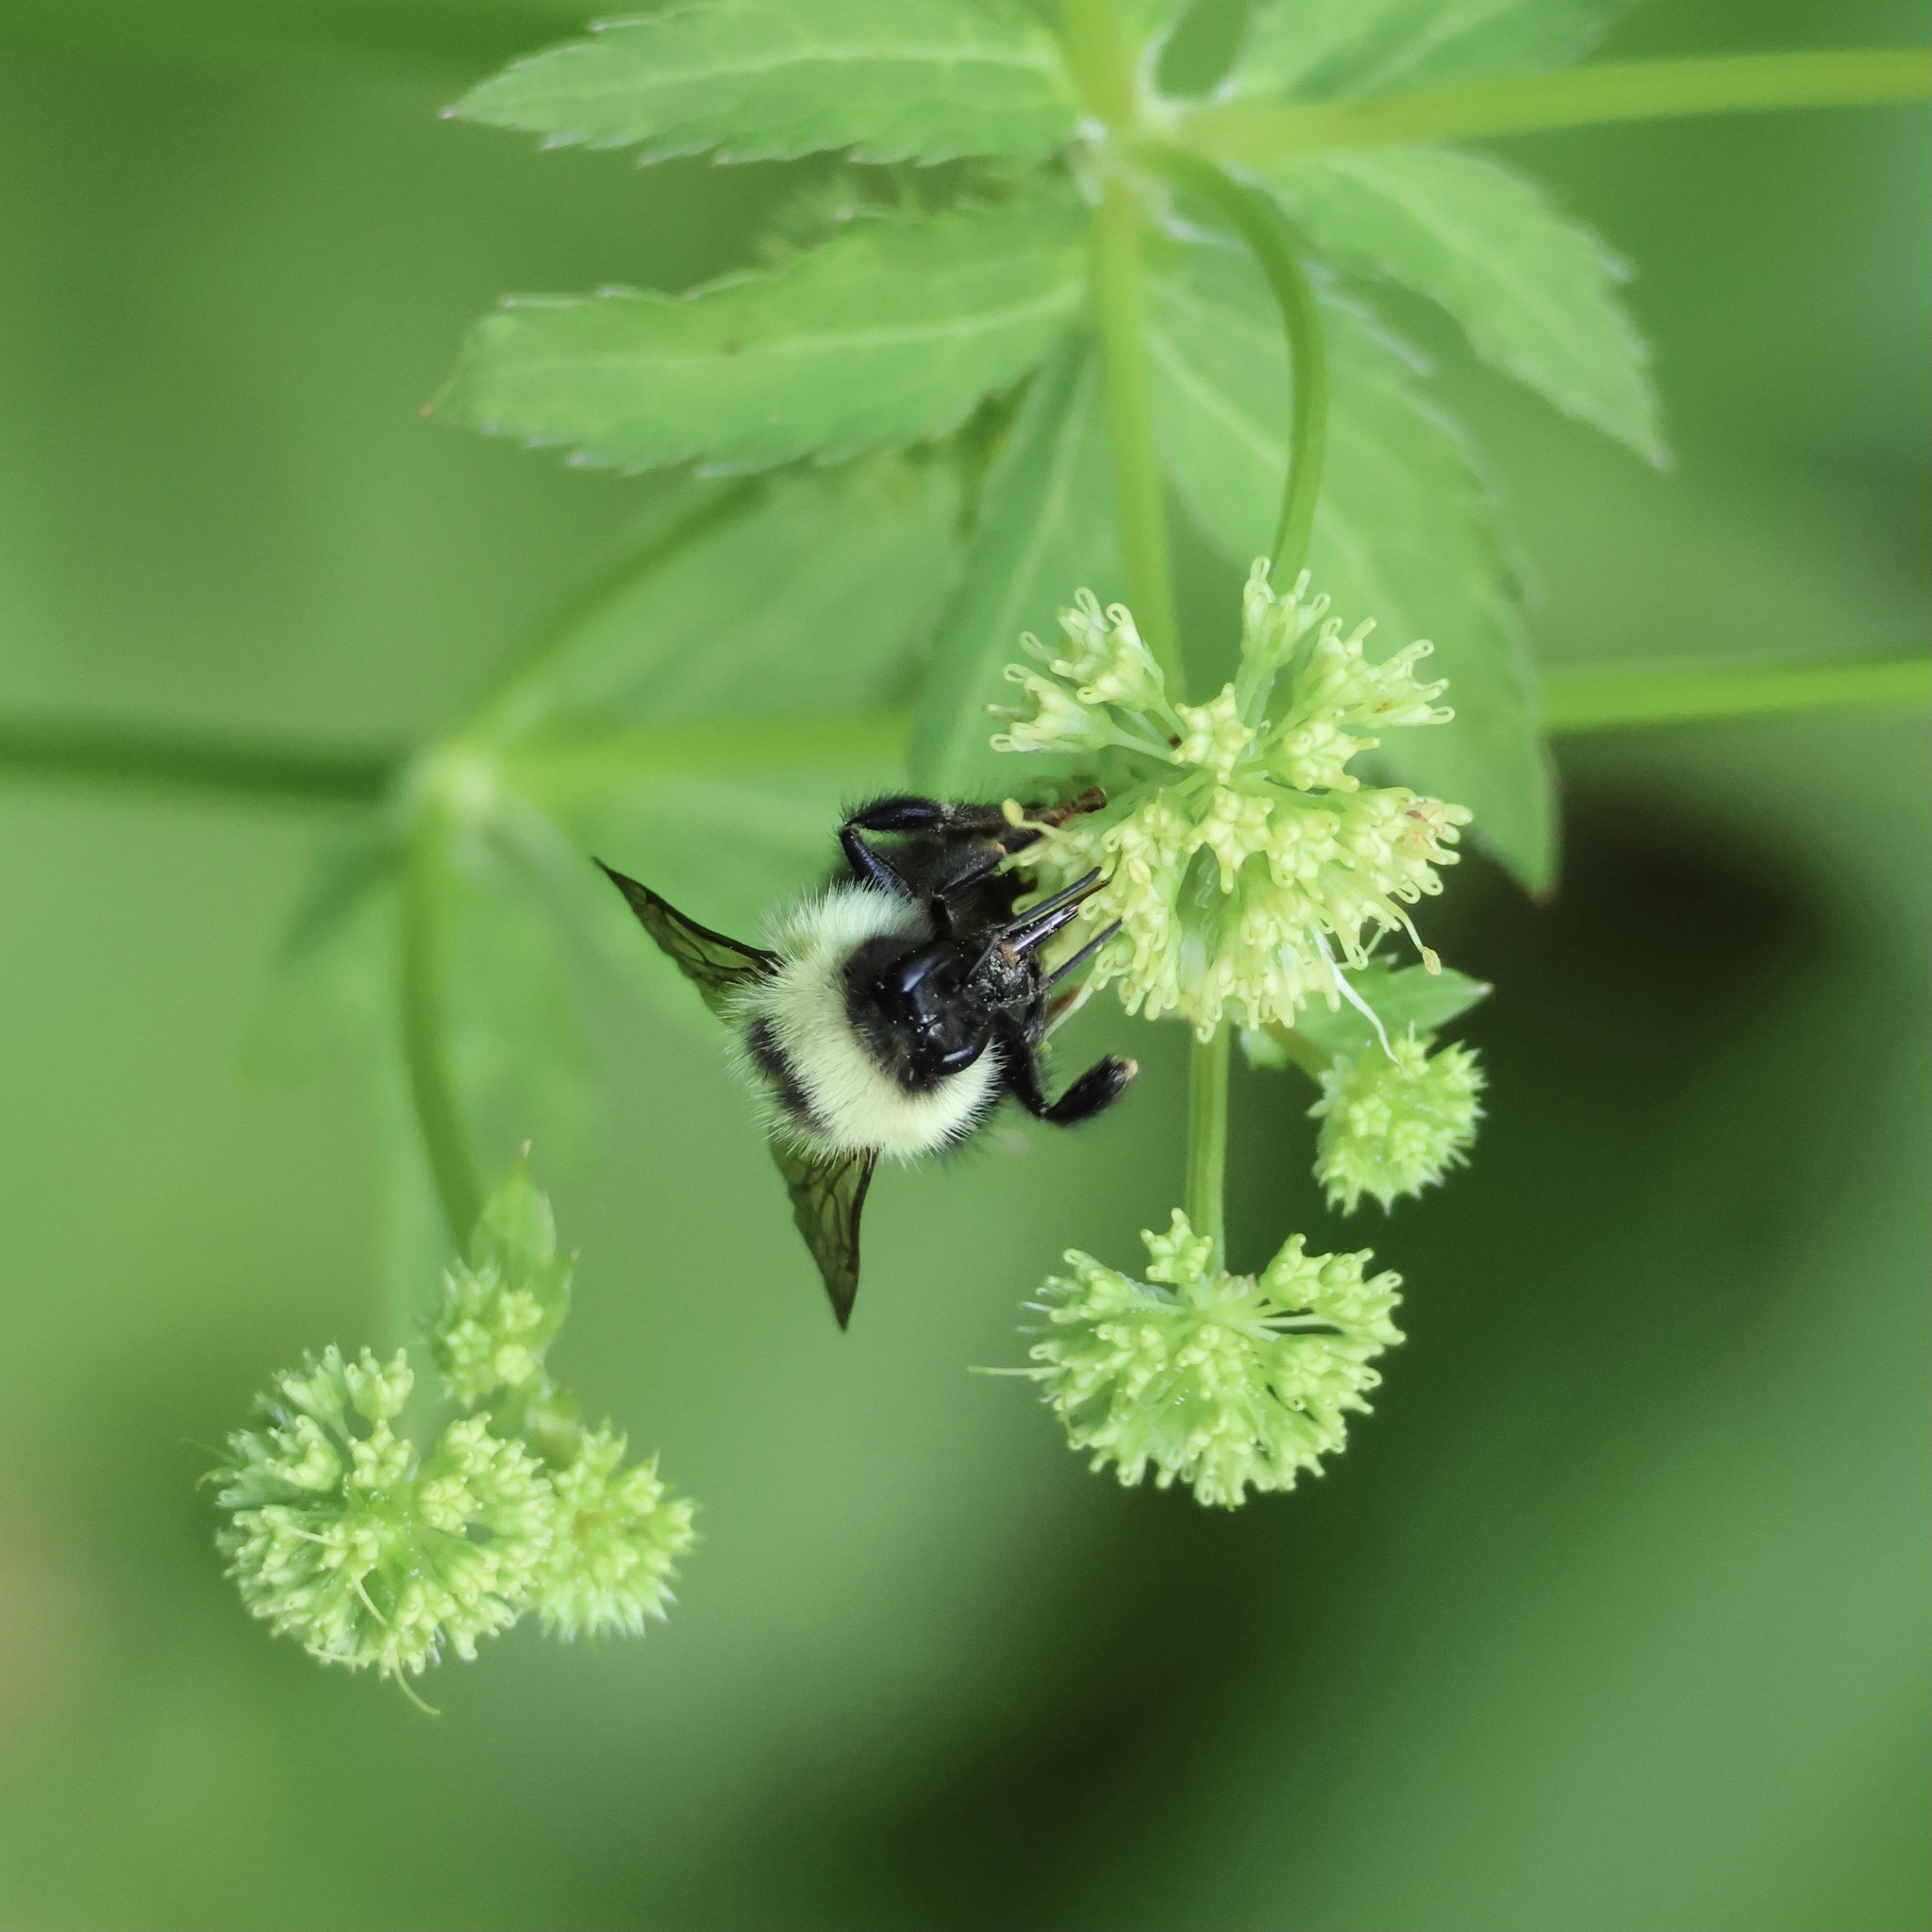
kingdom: Animalia
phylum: Arthropoda
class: Insecta
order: Hymenoptera
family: Apidae
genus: Bombus
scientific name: Bombus vagans
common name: Half-black bumble bee
